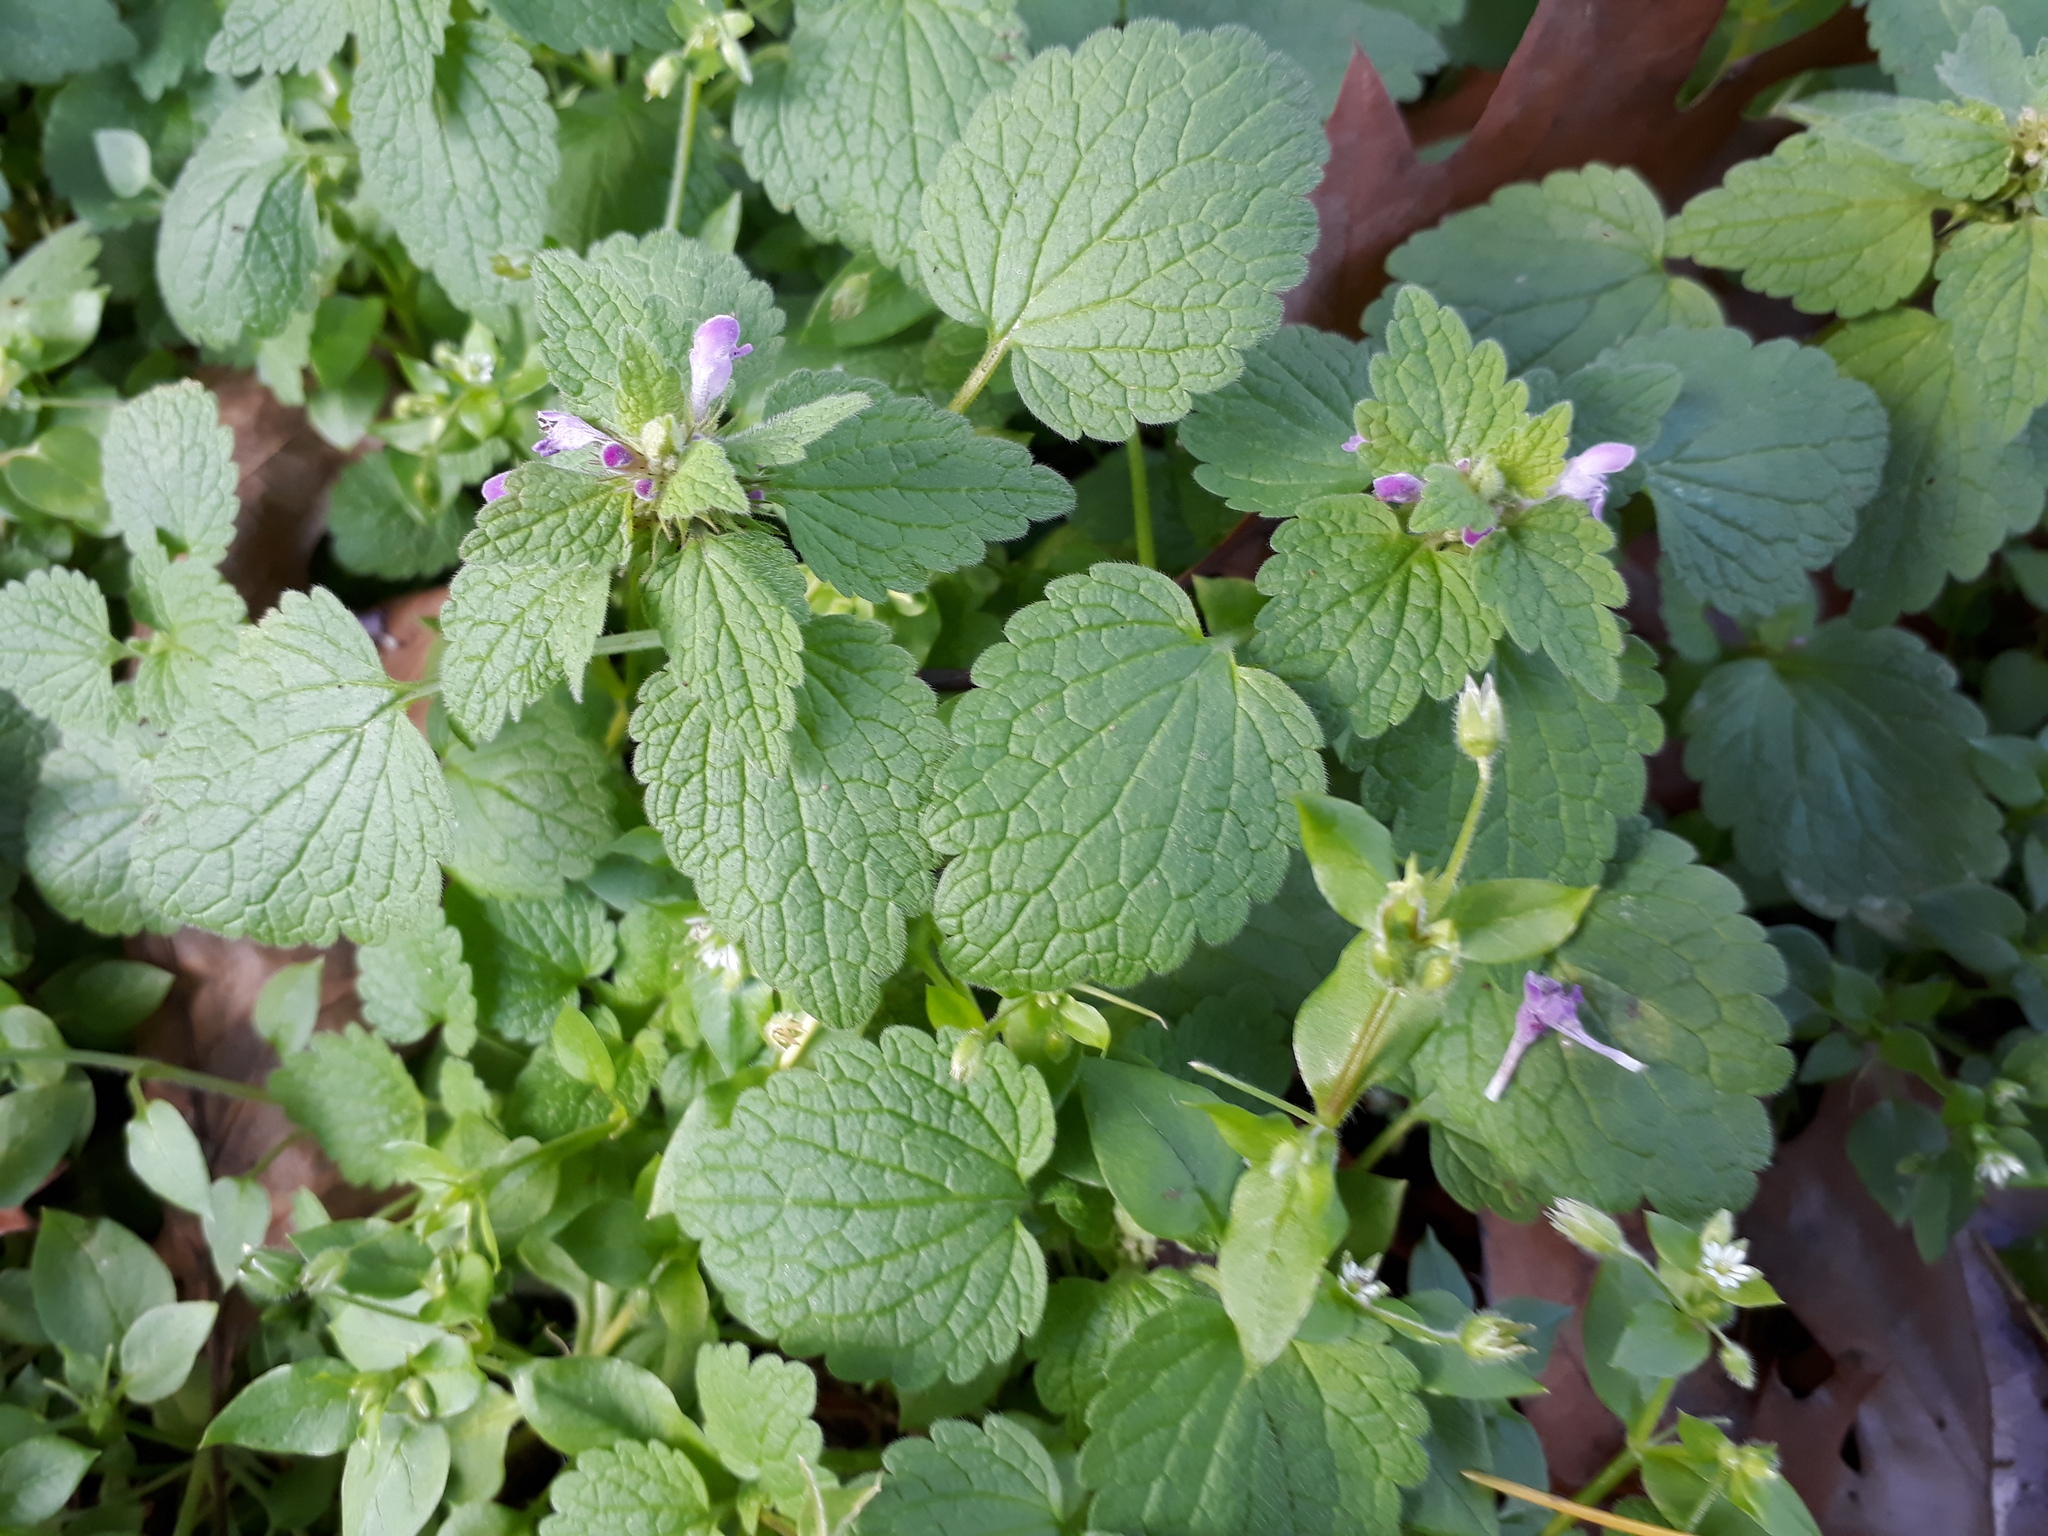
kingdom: Plantae
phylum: Tracheophyta
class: Magnoliopsida
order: Lamiales
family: Lamiaceae
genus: Lamium
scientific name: Lamium purpureum
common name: Red dead-nettle
